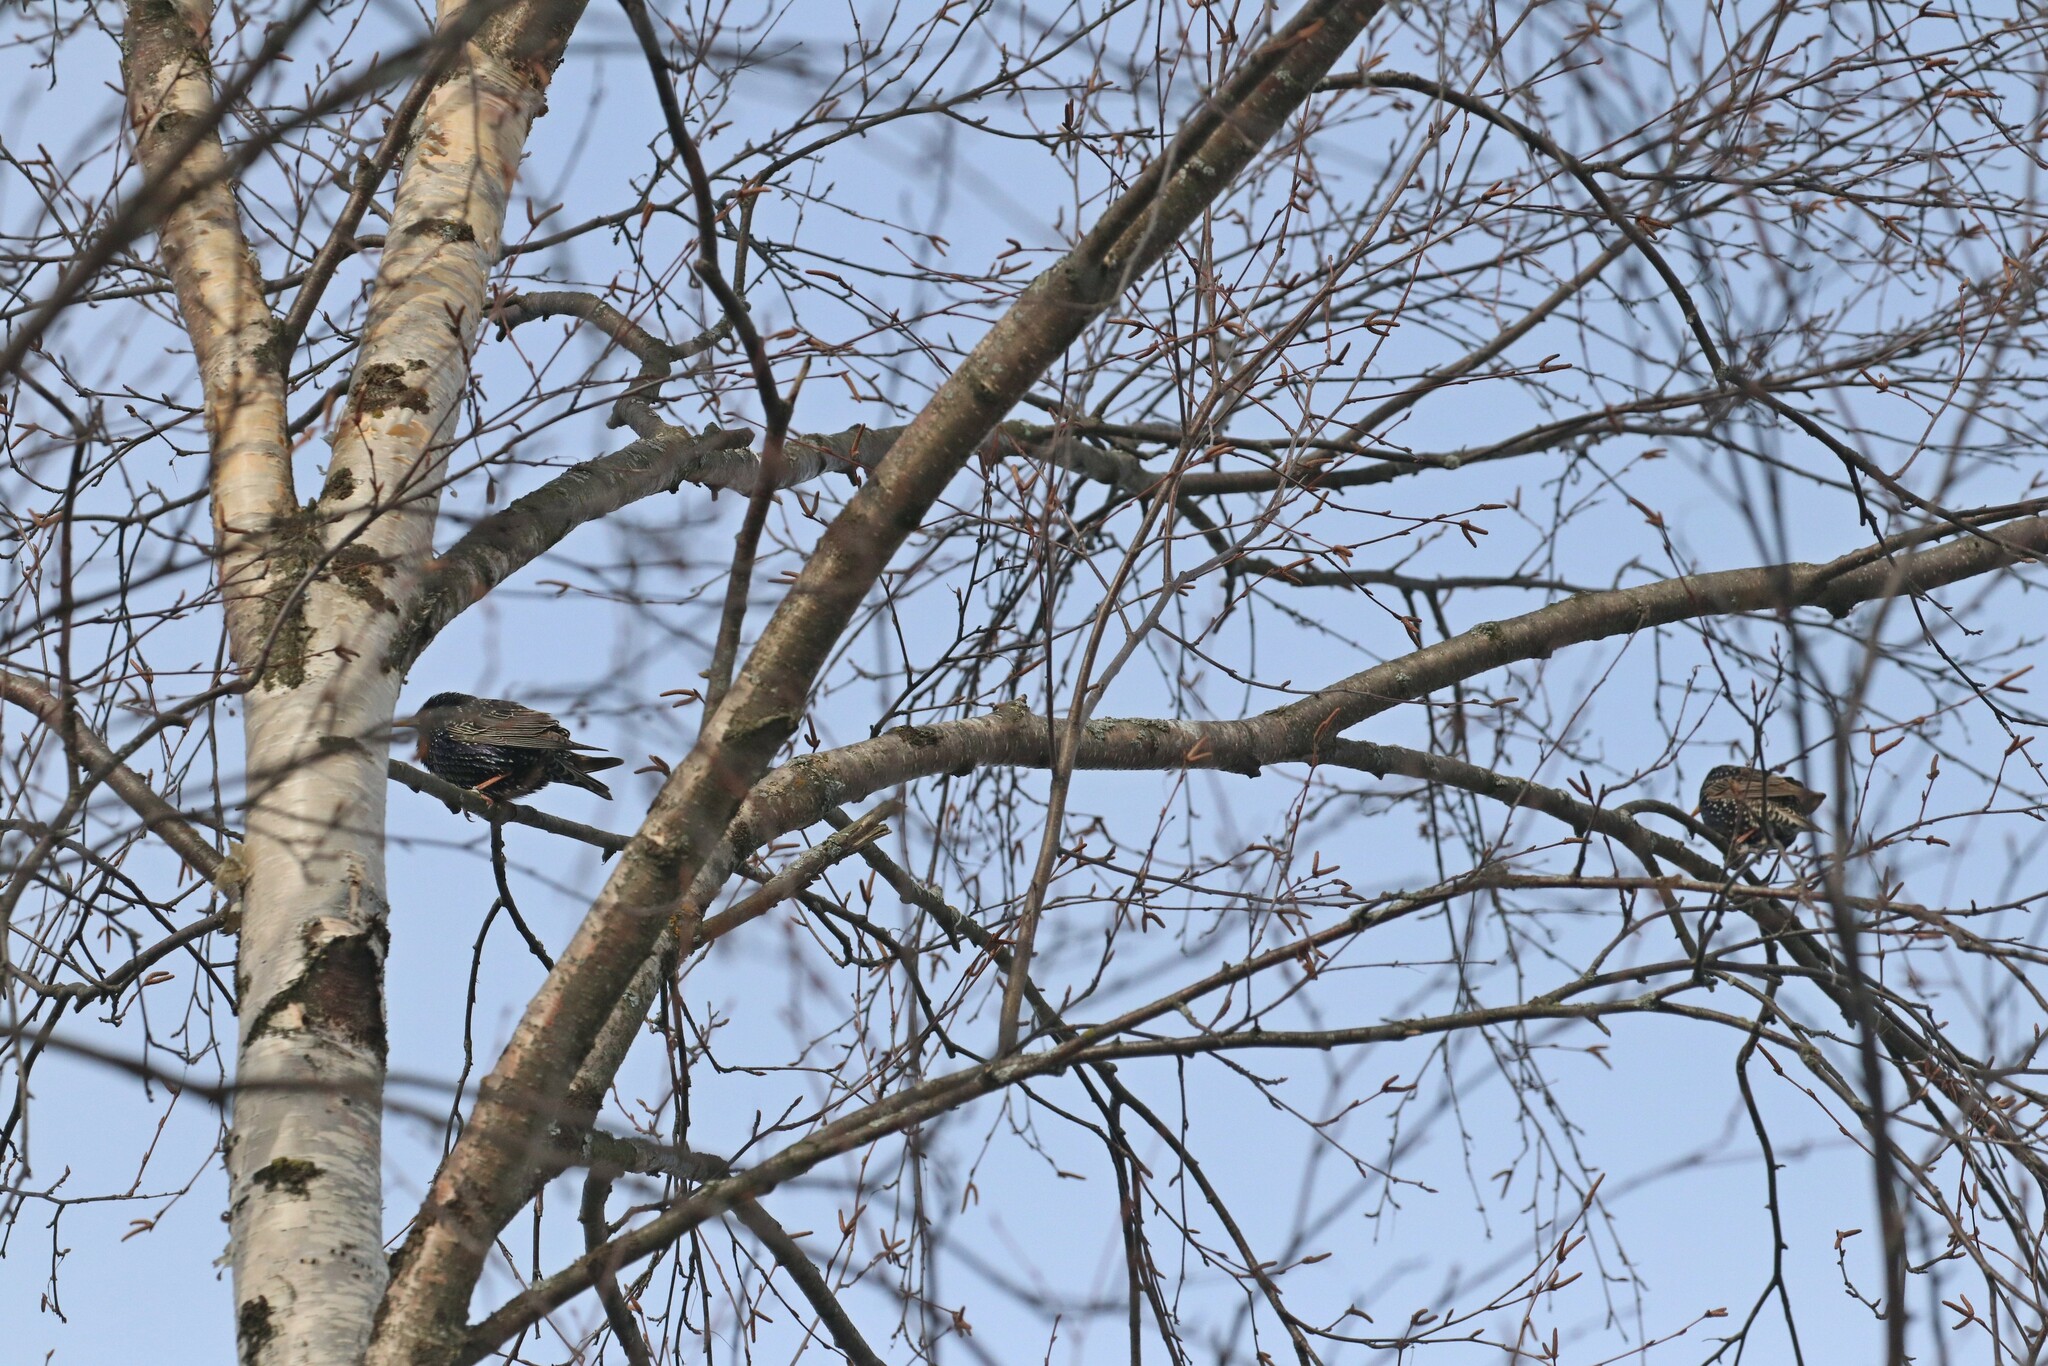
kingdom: Animalia
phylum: Chordata
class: Aves
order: Passeriformes
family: Sturnidae
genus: Sturnus
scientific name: Sturnus vulgaris
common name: Common starling
